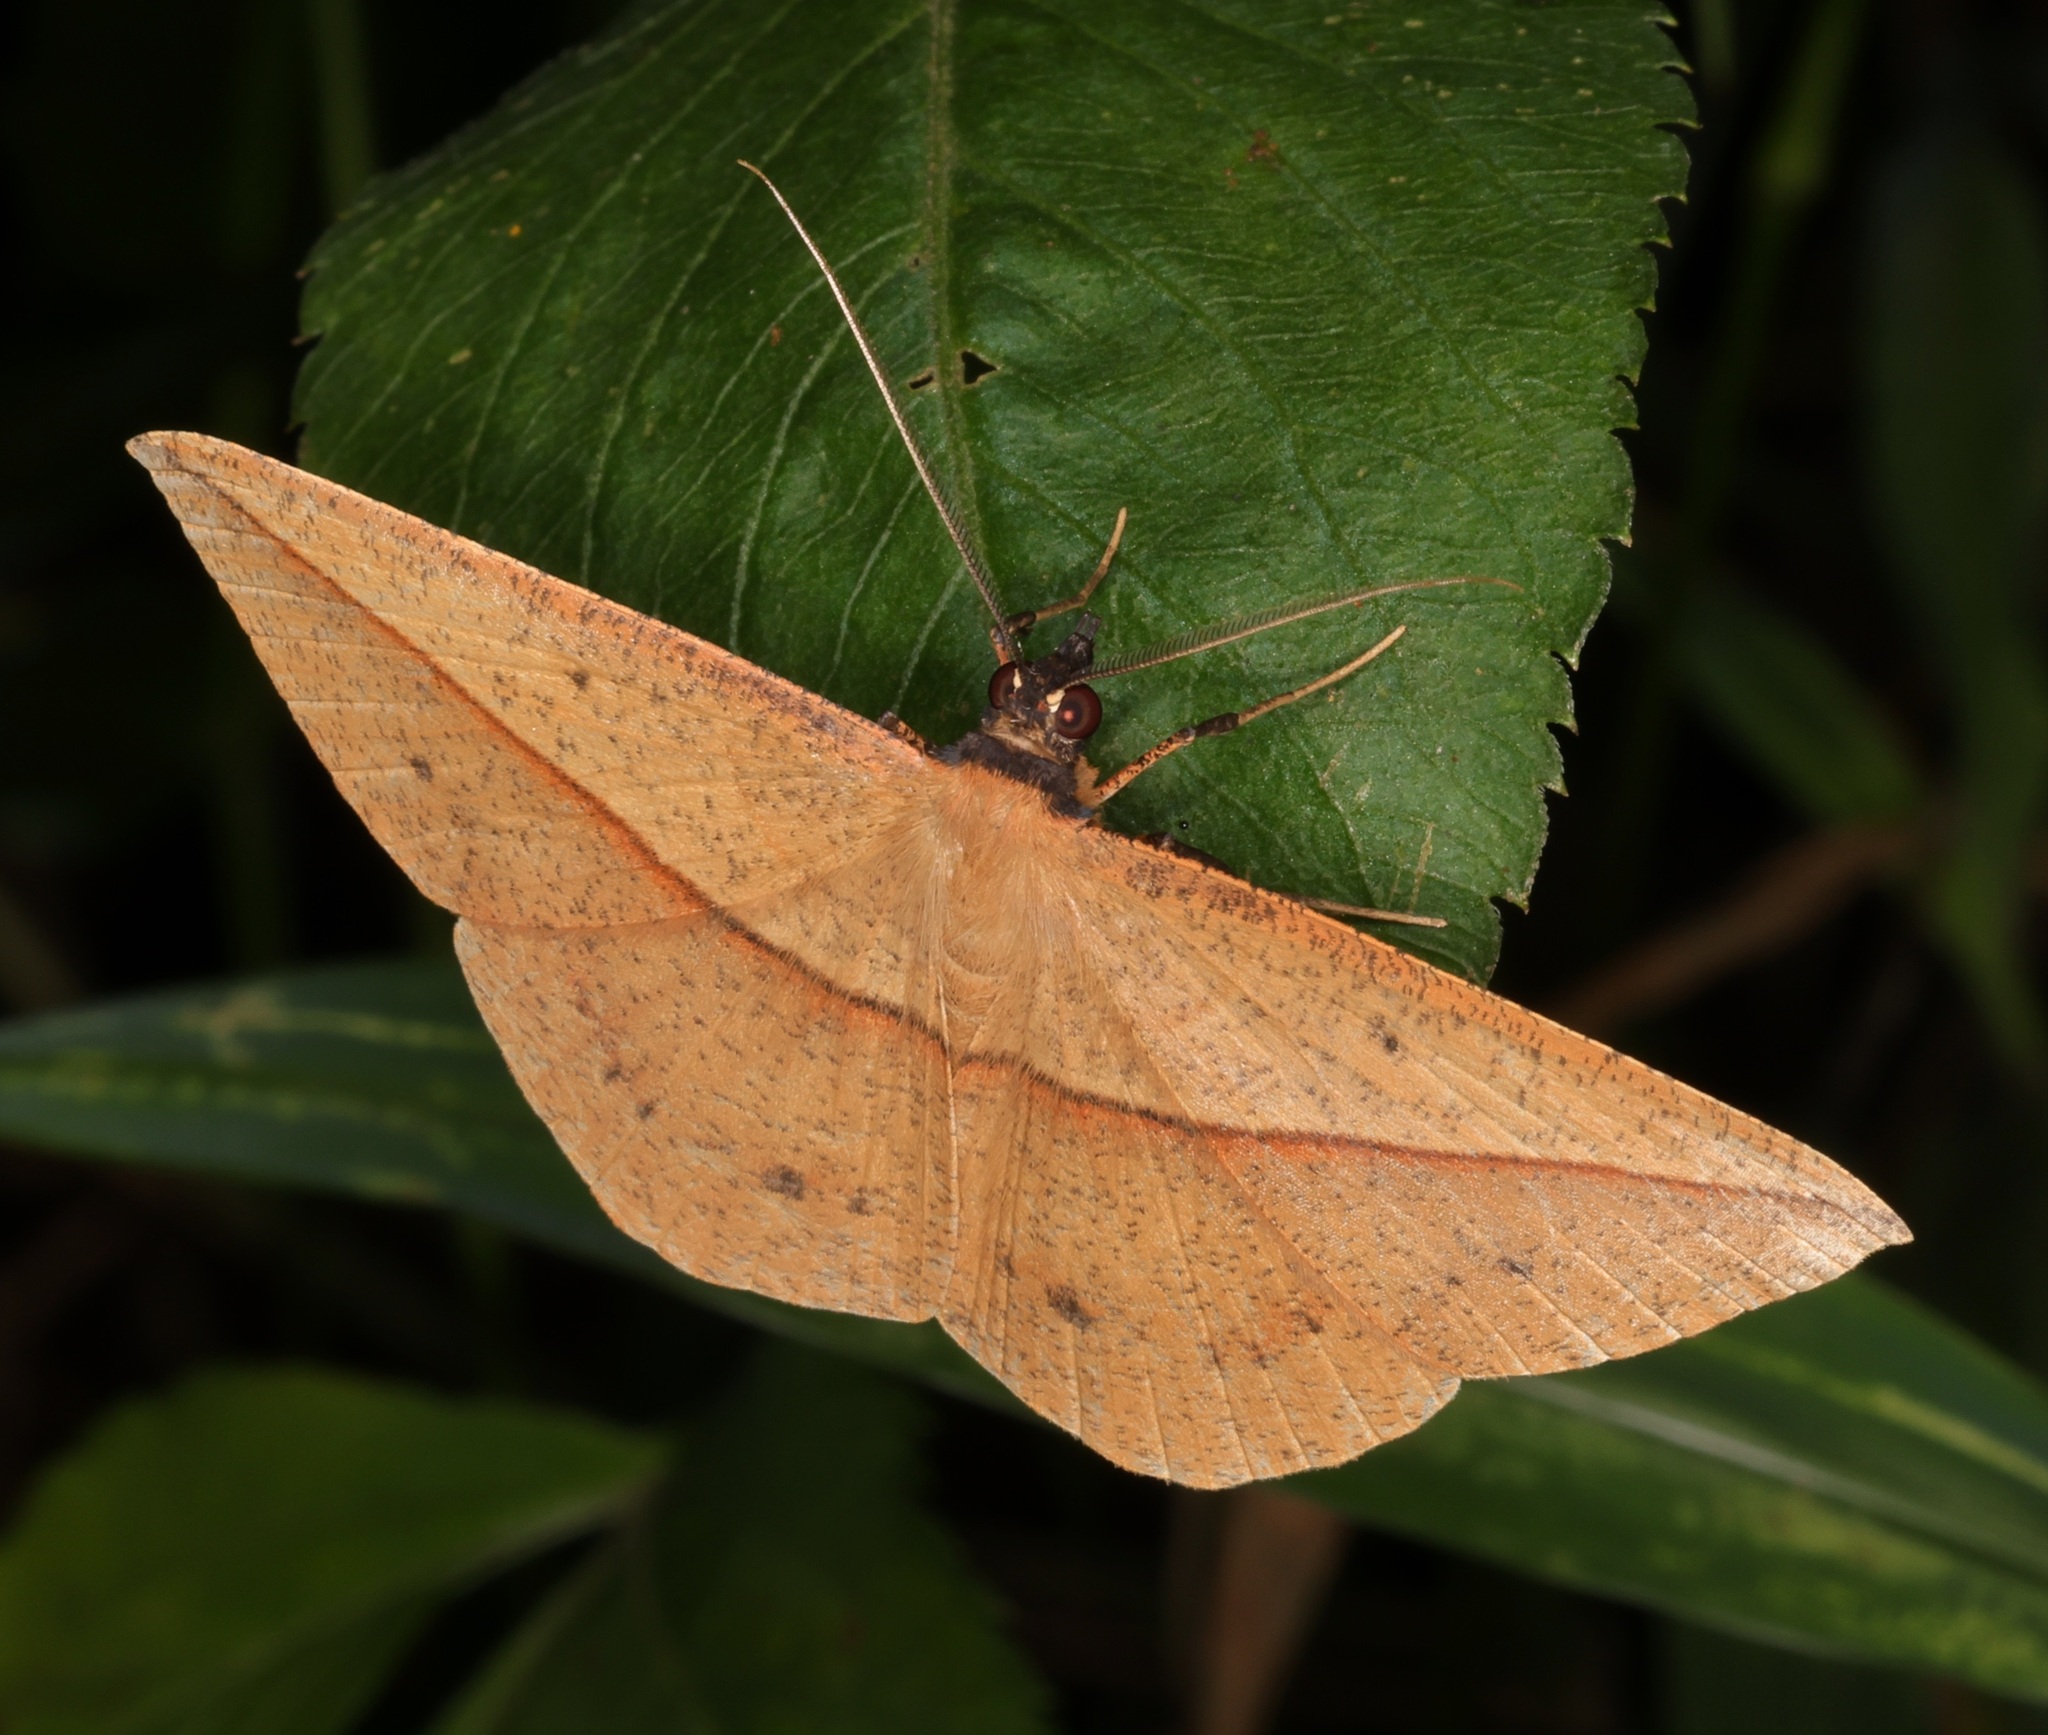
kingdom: Animalia
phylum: Arthropoda
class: Insecta
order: Lepidoptera
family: Geometridae
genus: Alex
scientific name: Alex palparia
